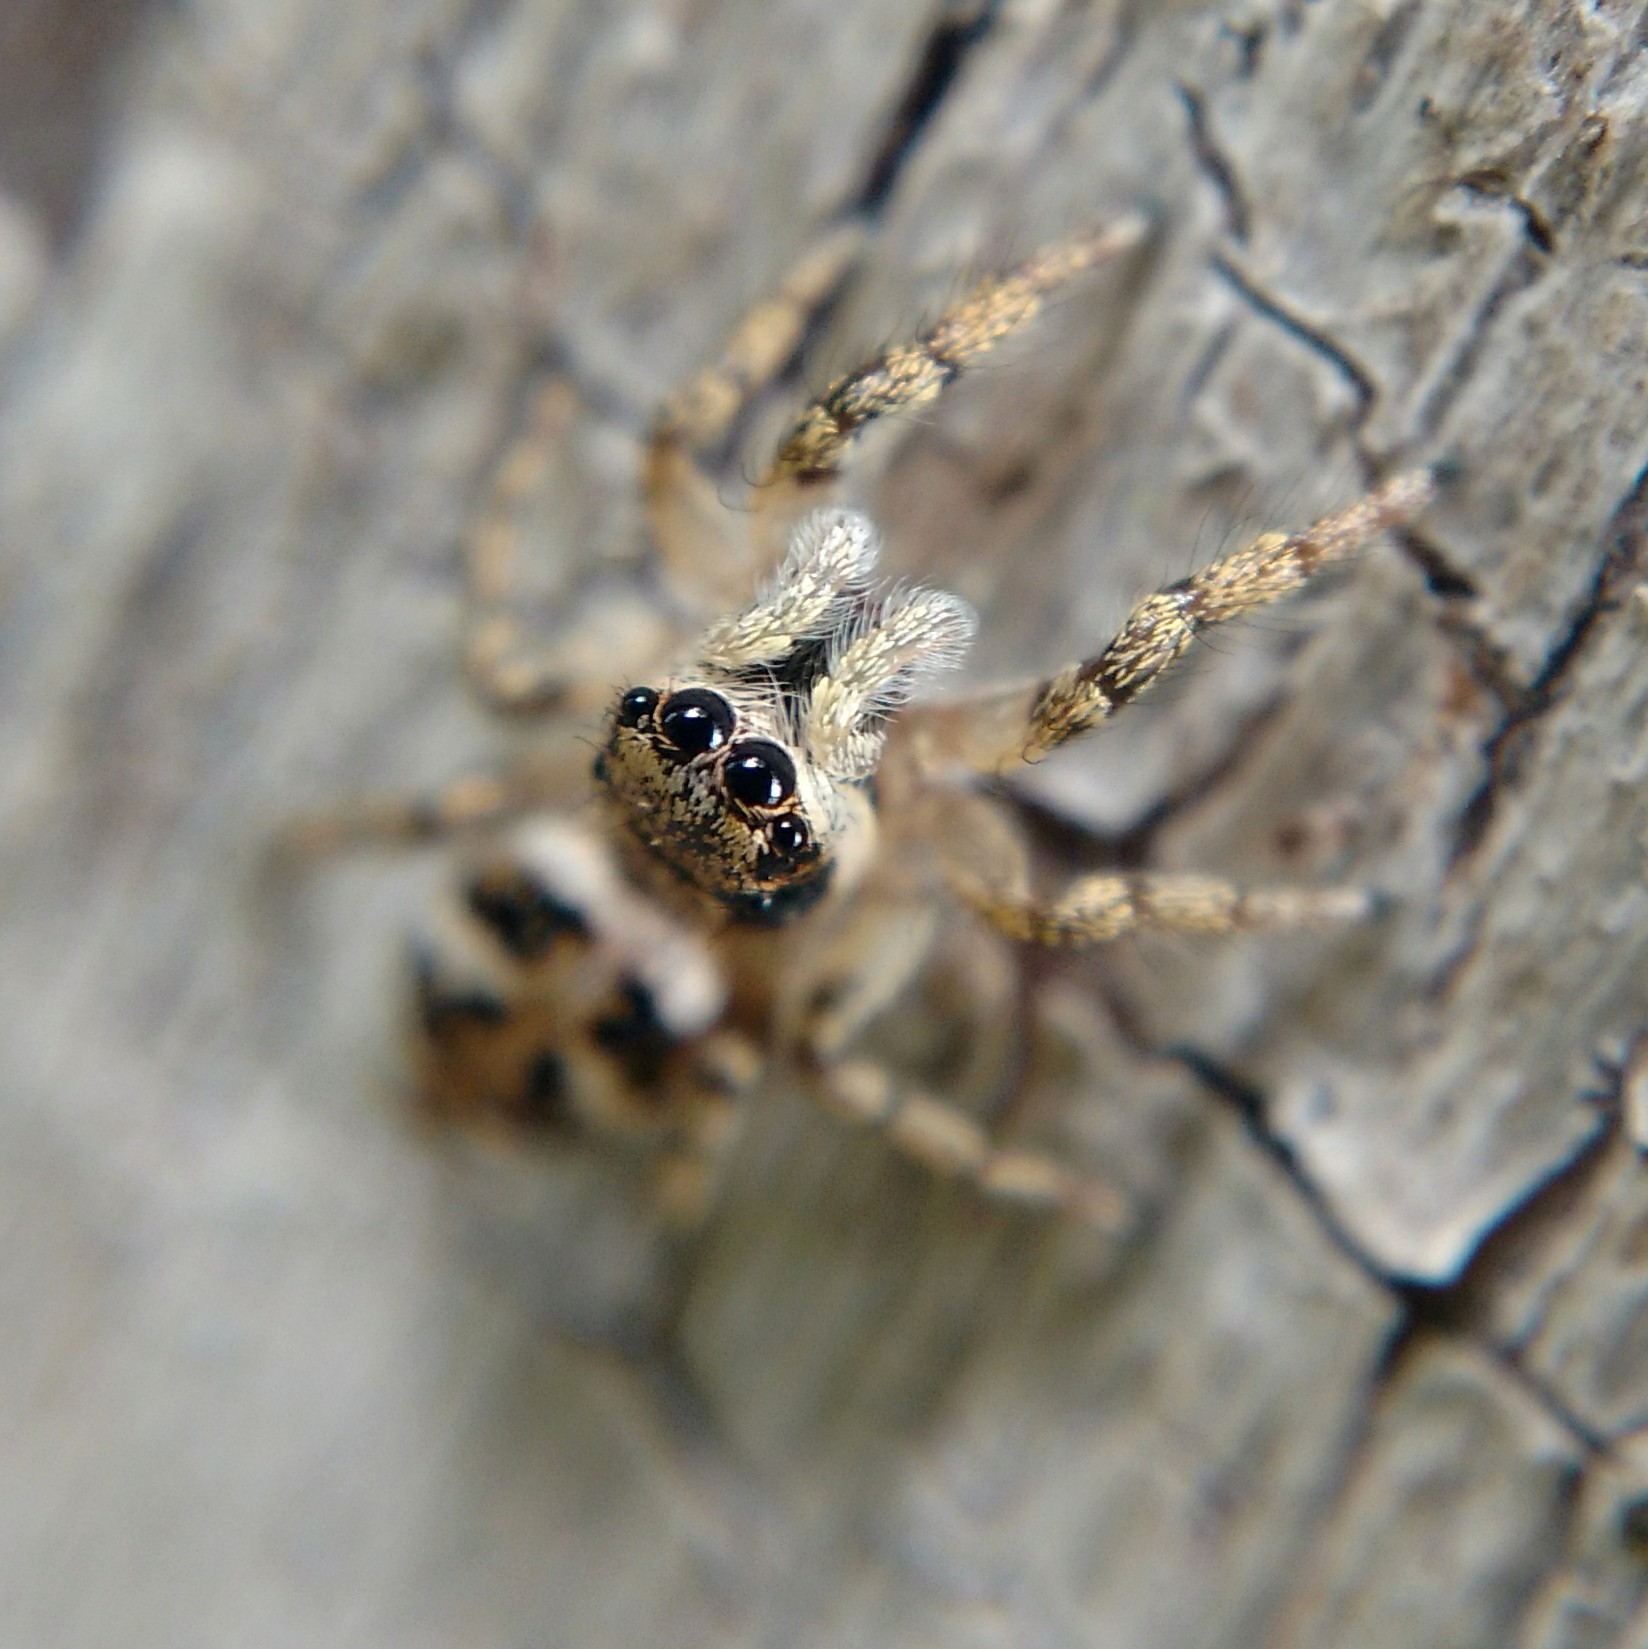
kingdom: Animalia
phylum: Arthropoda
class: Arachnida
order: Araneae
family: Salticidae
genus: Salticus
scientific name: Salticus scenicus
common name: Zebra jumper
